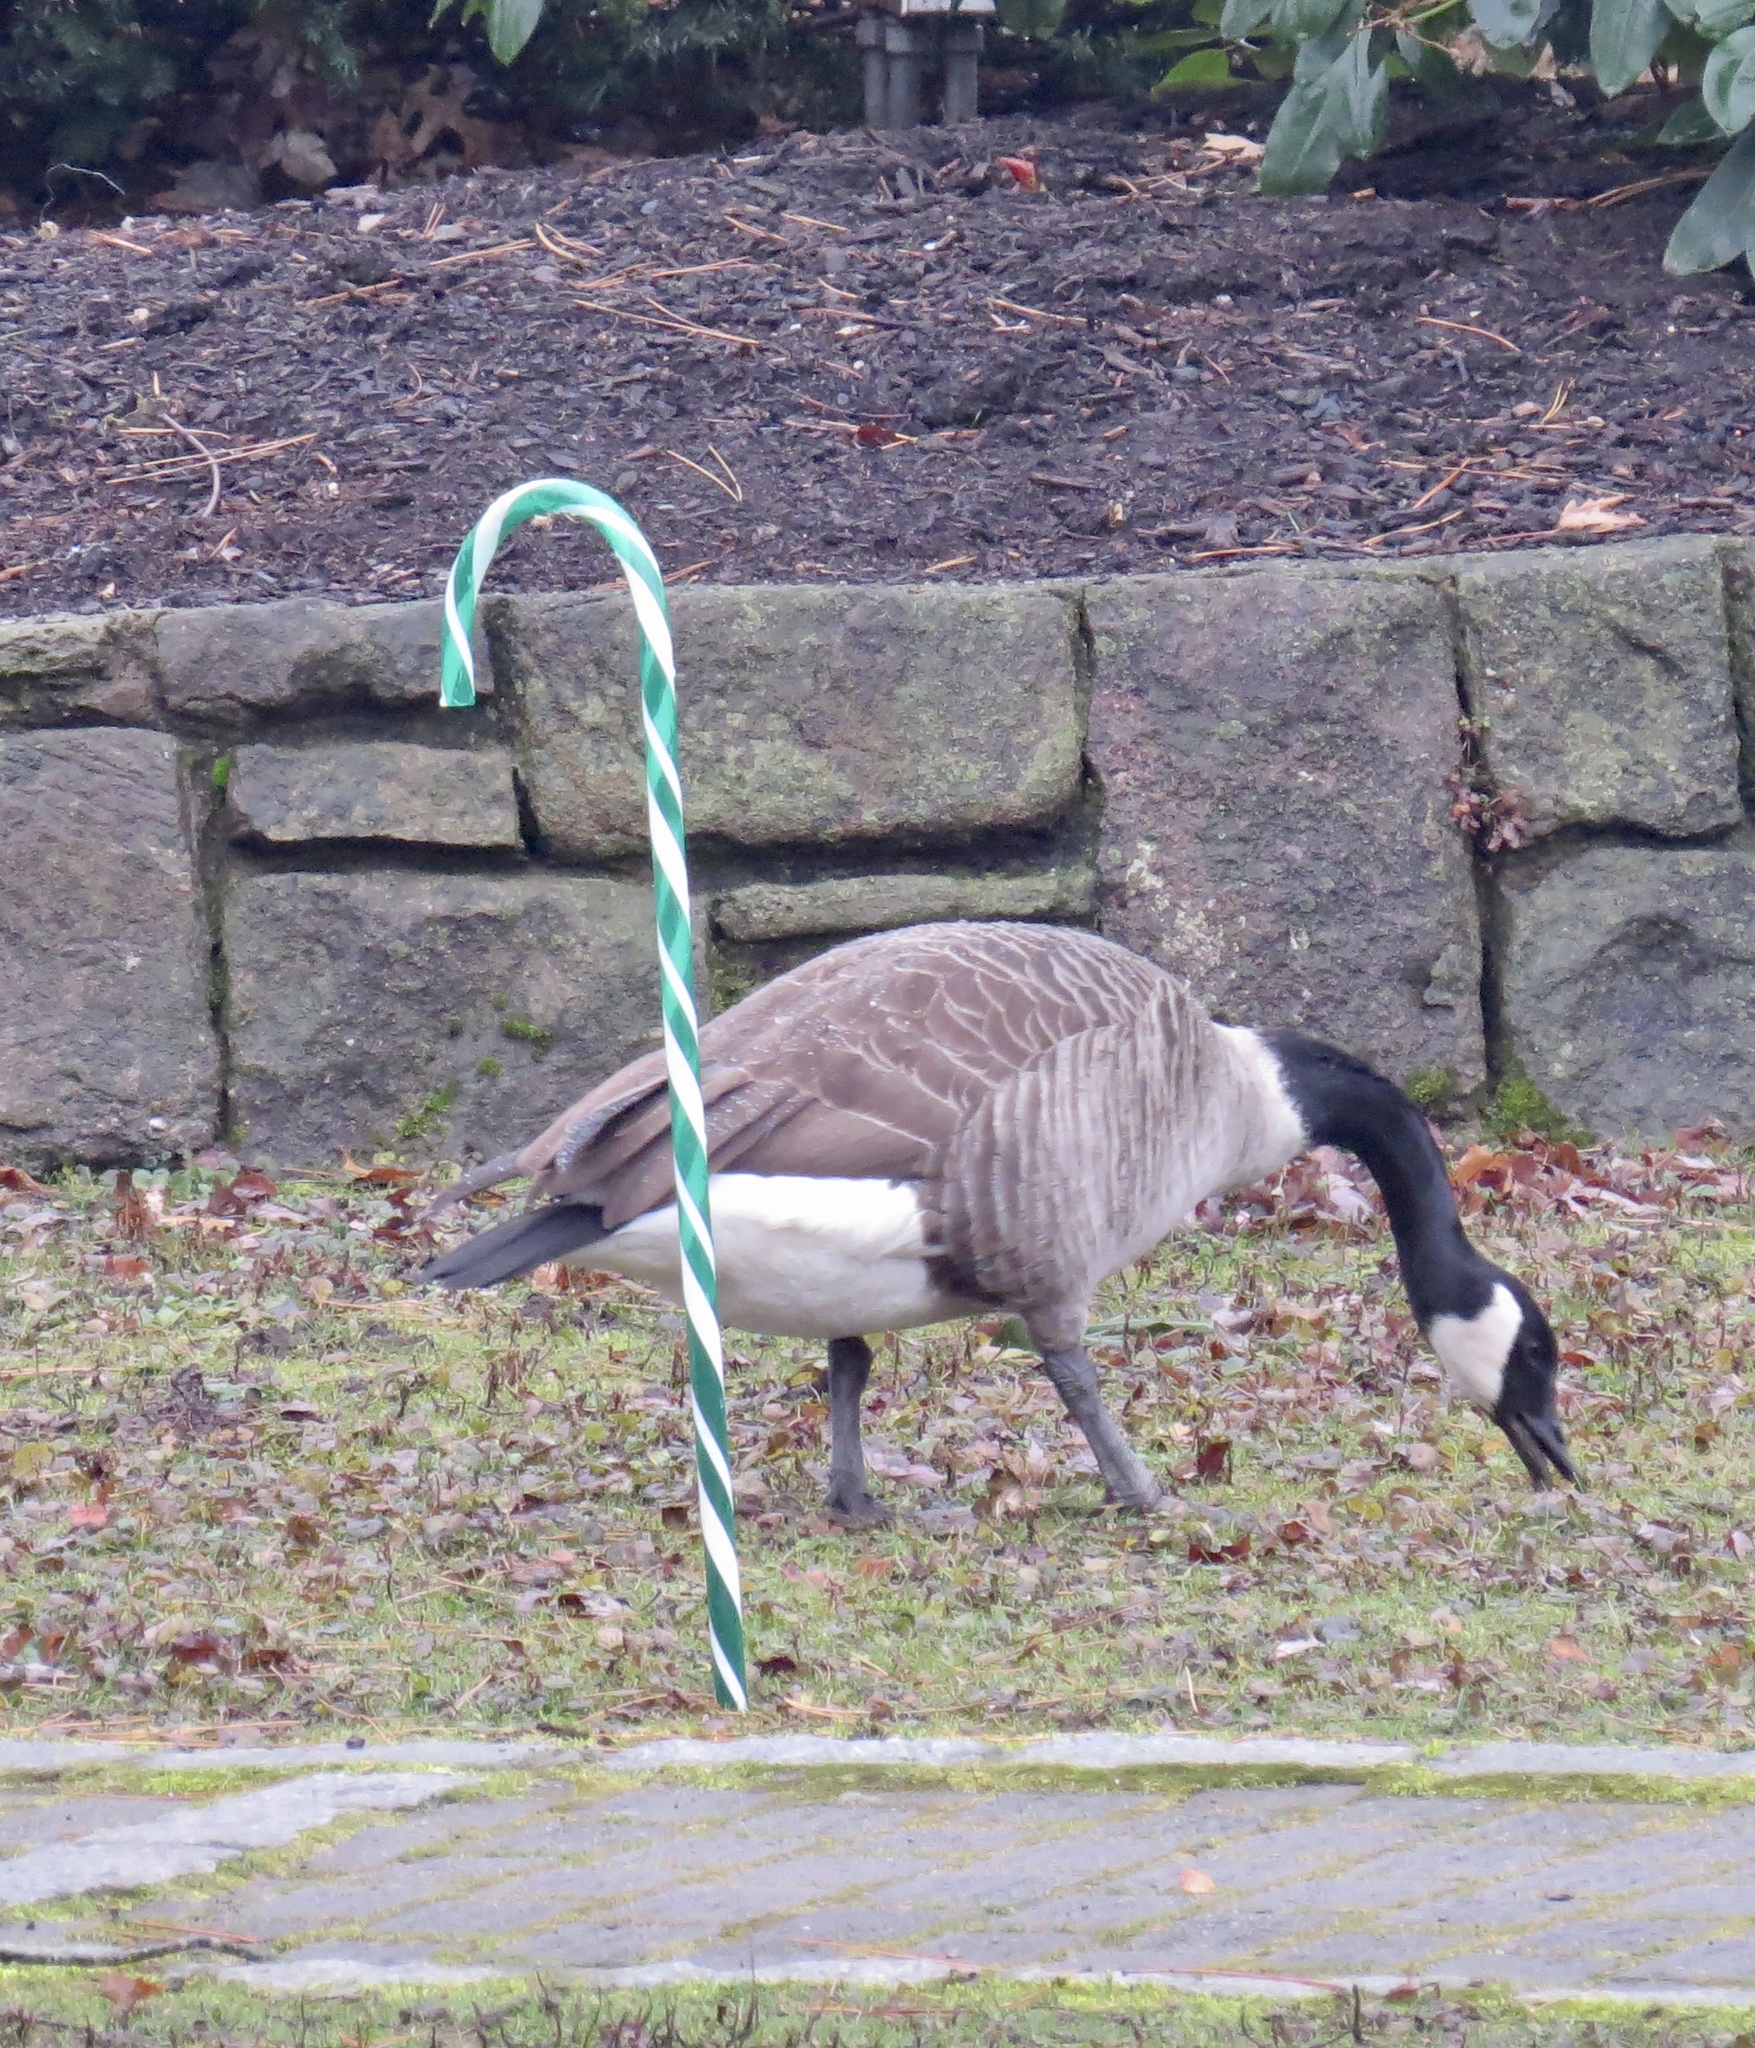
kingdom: Animalia
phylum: Chordata
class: Aves
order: Anseriformes
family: Anatidae
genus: Branta
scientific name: Branta canadensis
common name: Canada goose
